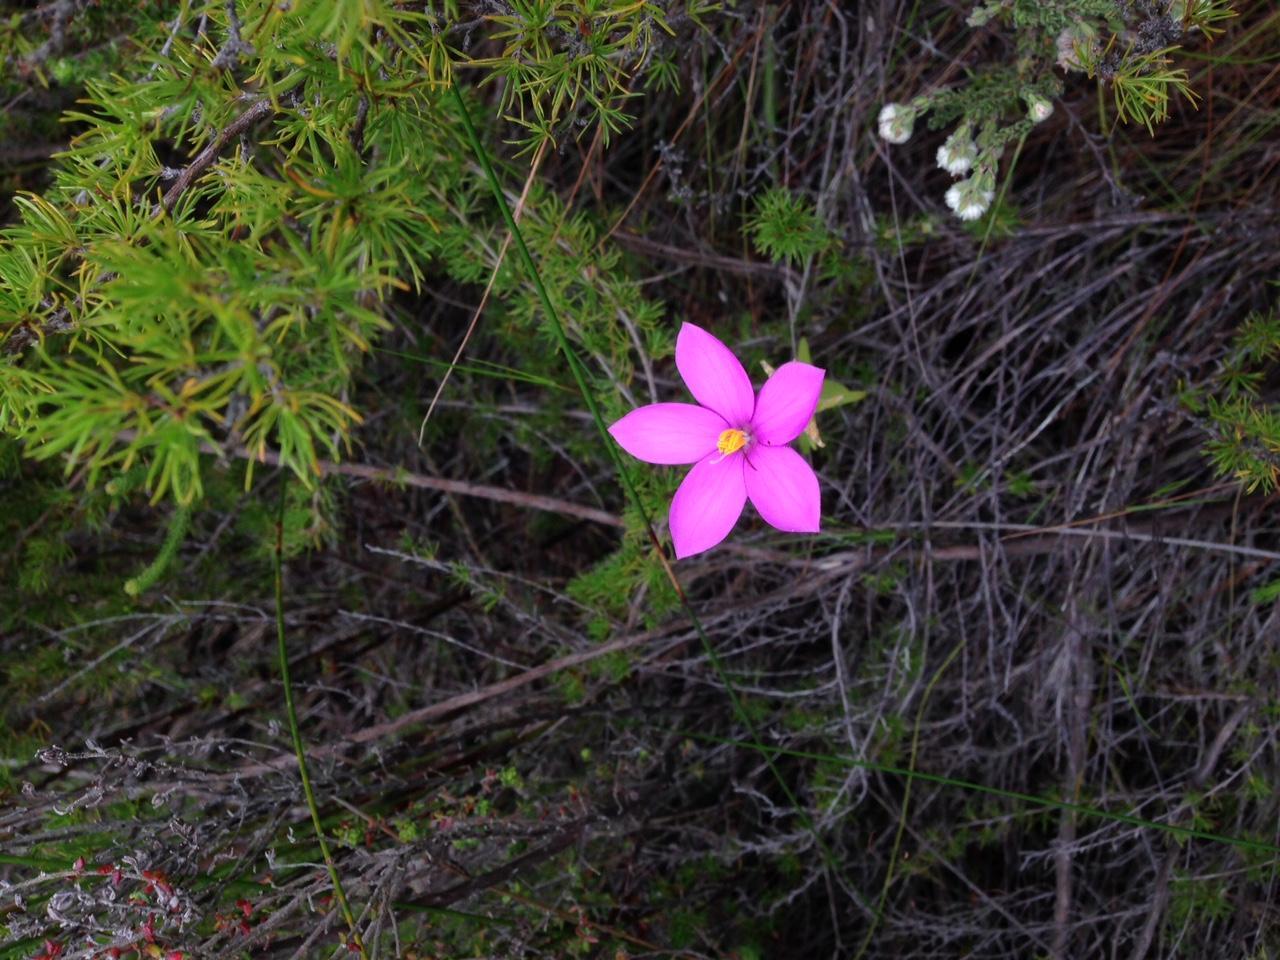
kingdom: Plantae
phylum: Tracheophyta
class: Magnoliopsida
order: Gentianales
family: Gentianaceae
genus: Chironia
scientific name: Chironia melampyrifolia
